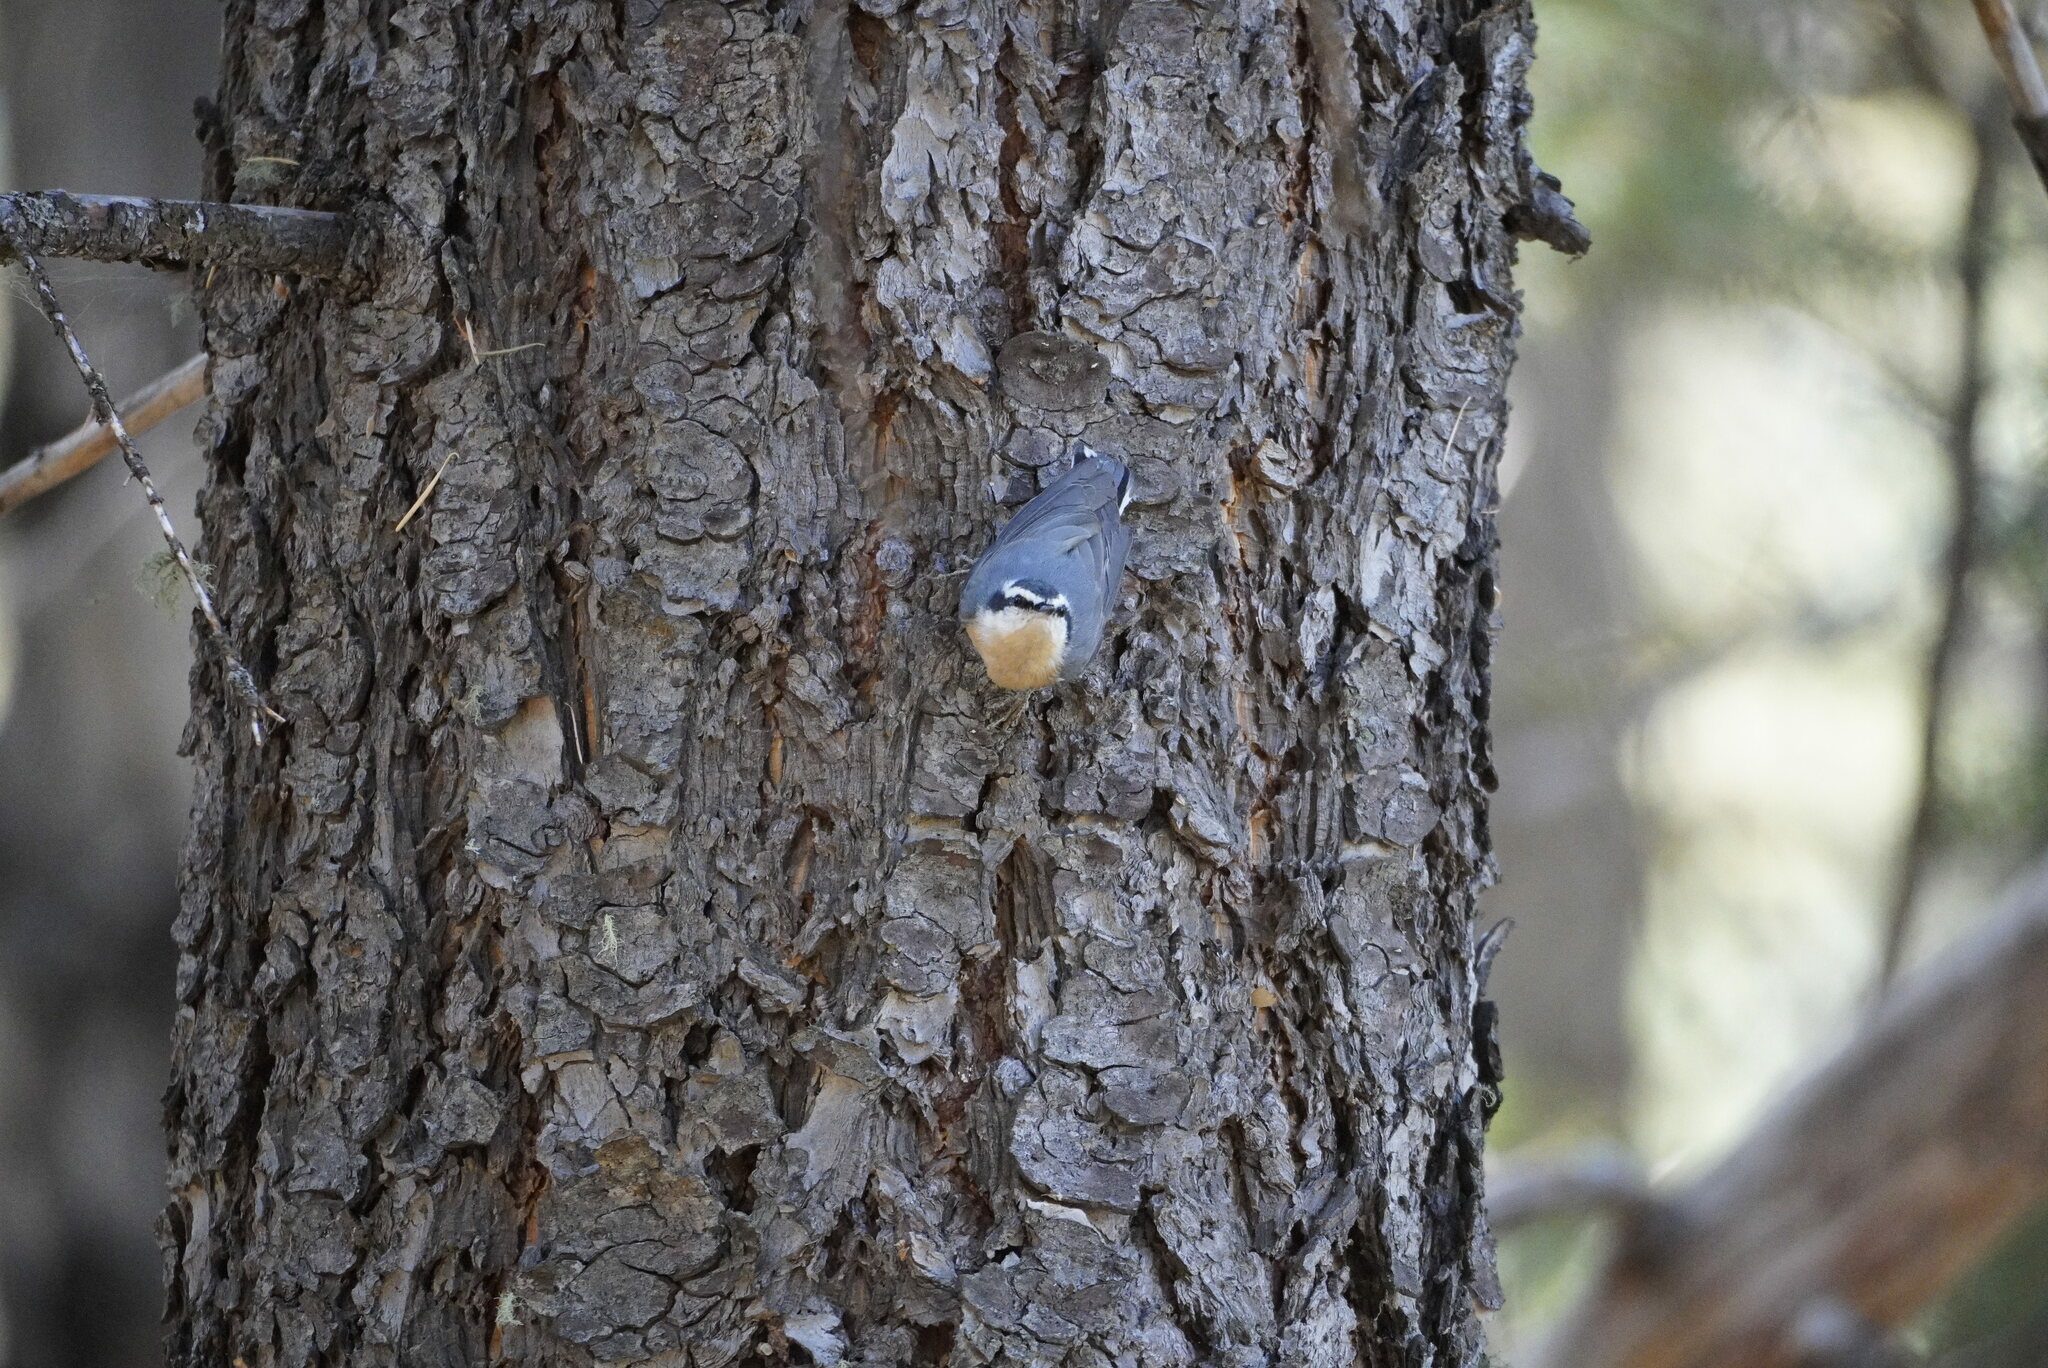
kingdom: Animalia
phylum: Chordata
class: Aves
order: Passeriformes
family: Sittidae
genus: Sitta
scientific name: Sitta canadensis
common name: Red-breasted nuthatch
